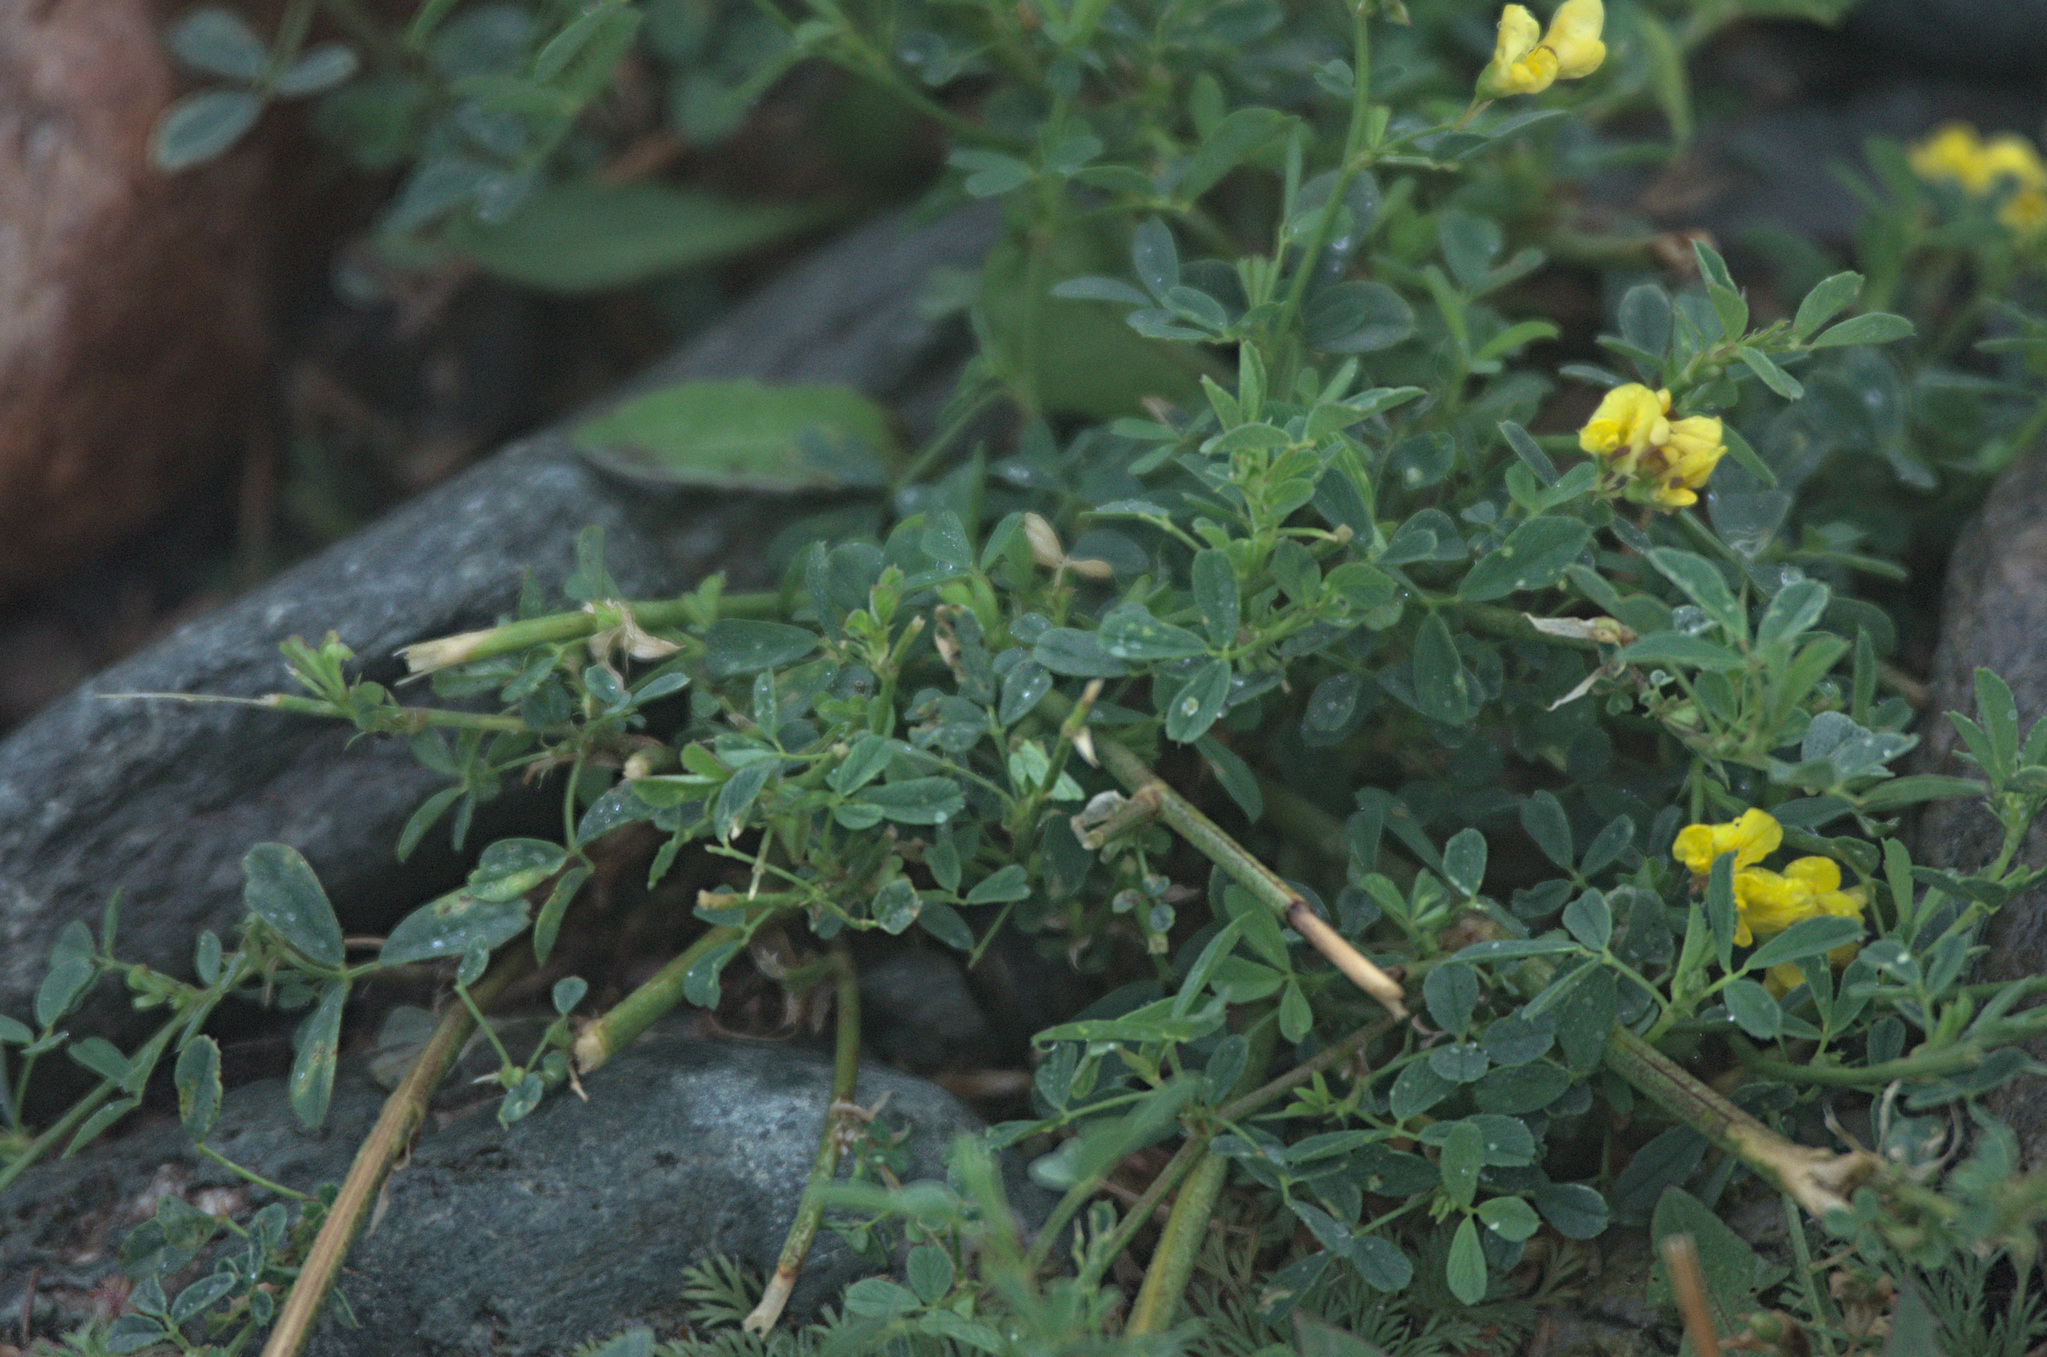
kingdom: Plantae
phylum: Tracheophyta
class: Magnoliopsida
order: Fabales
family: Fabaceae
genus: Medicago
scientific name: Medicago falcata
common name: Sickle medick
